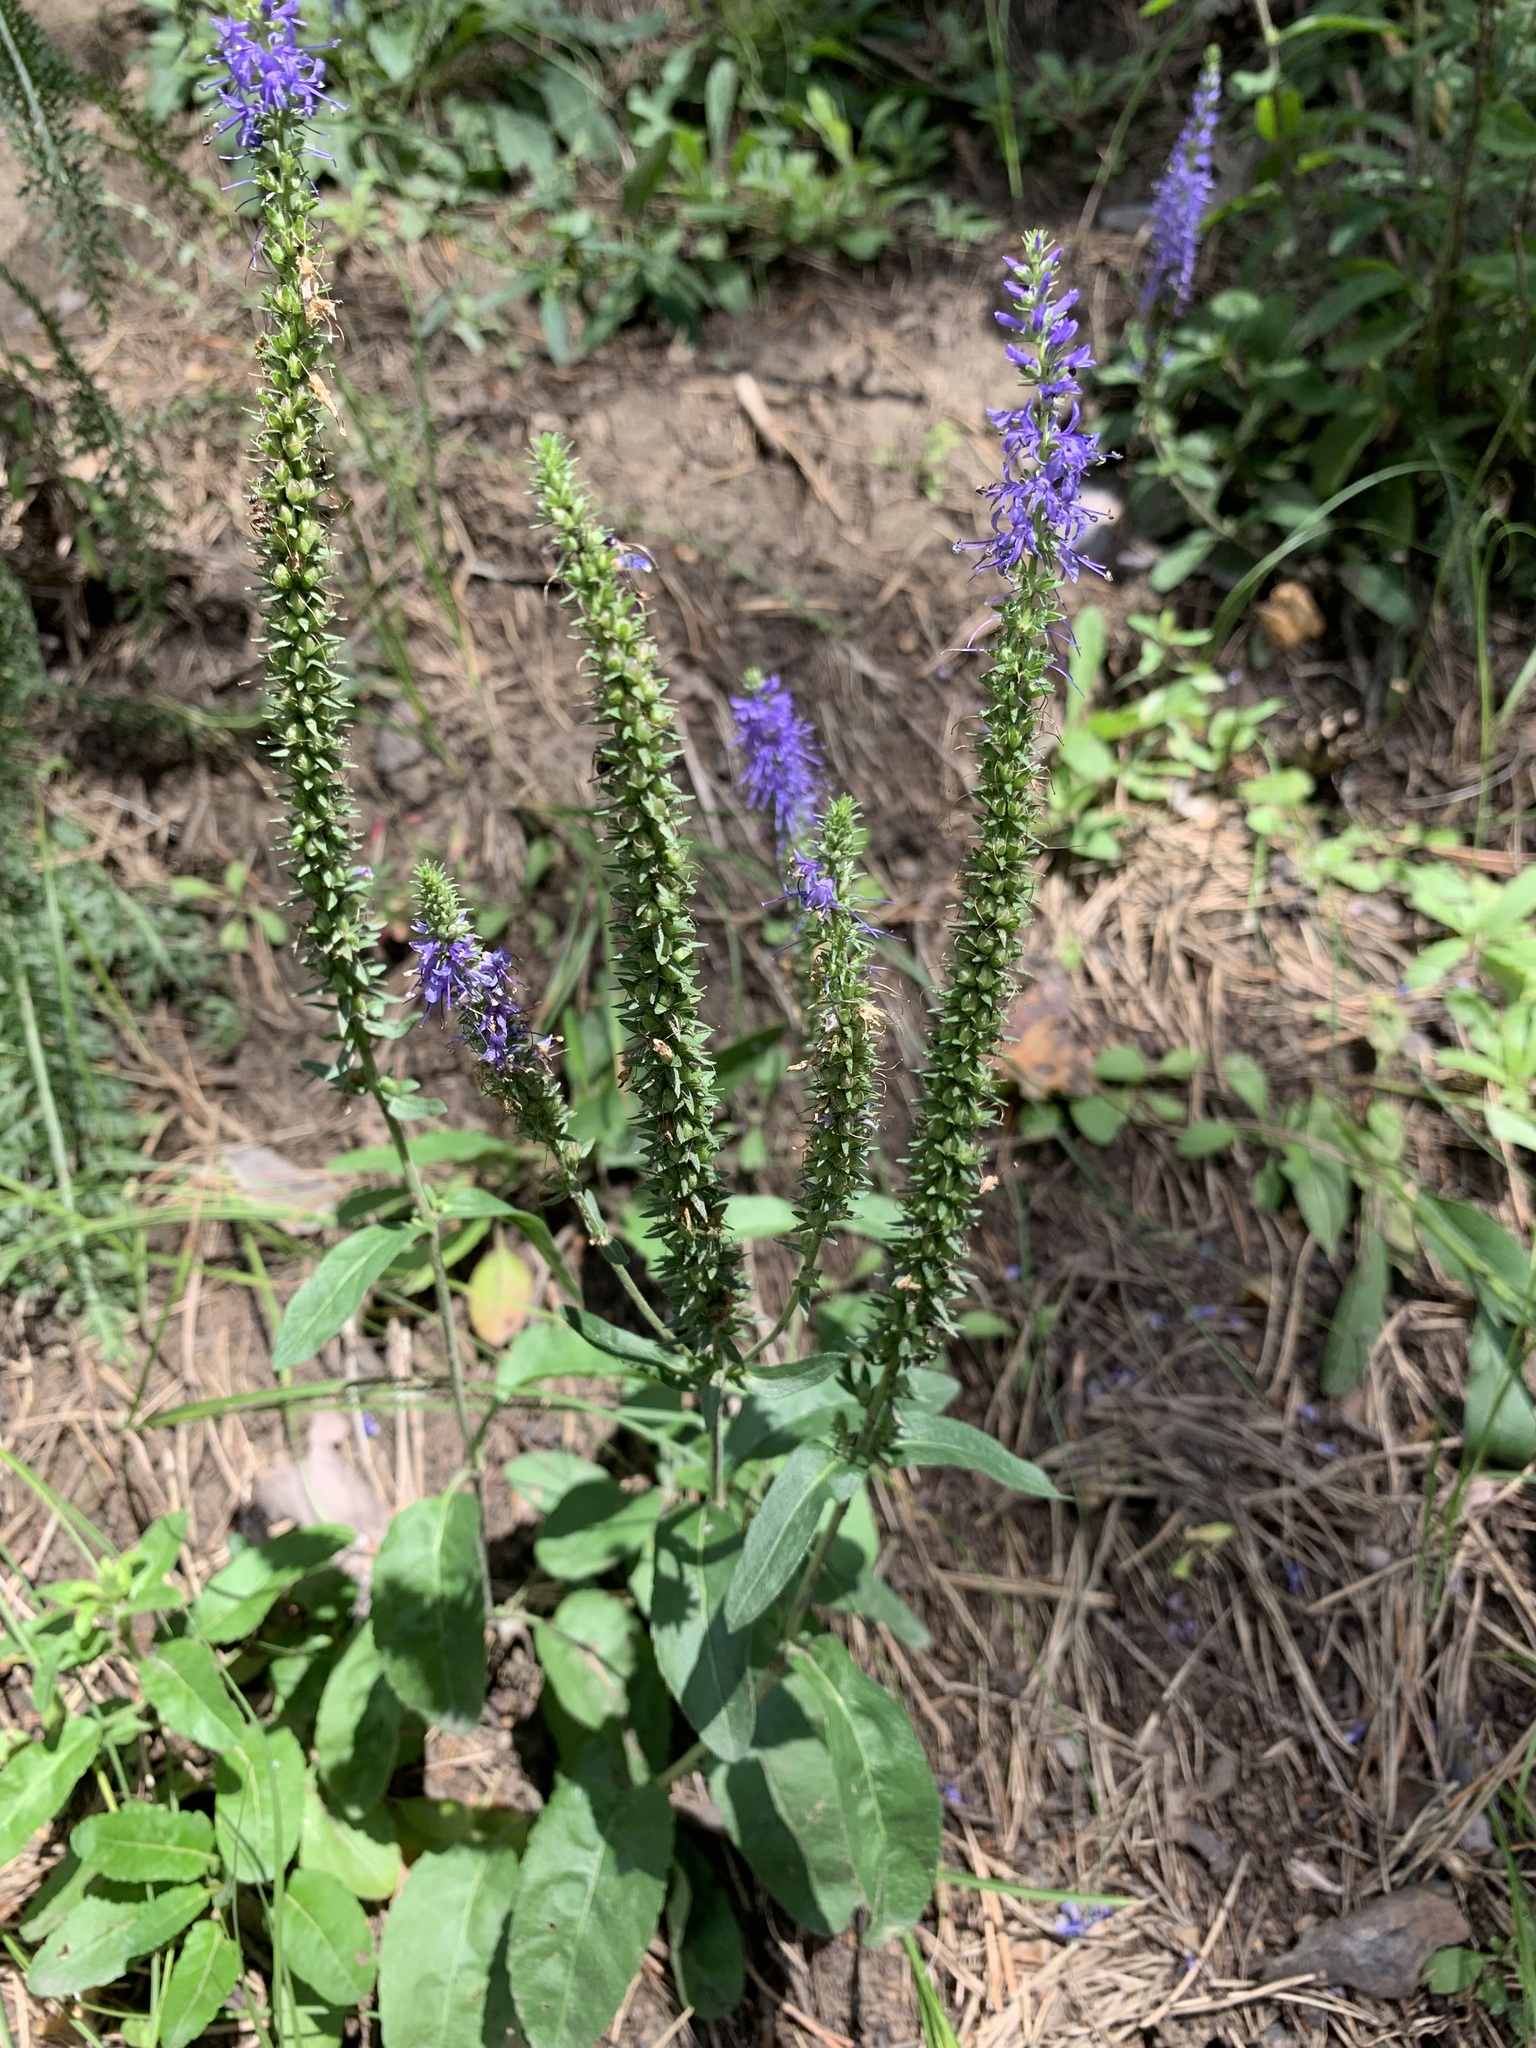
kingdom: Plantae
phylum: Tracheophyta
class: Magnoliopsida
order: Lamiales
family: Plantaginaceae
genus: Veronica
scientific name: Veronica spicata
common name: Spiked speedwell
